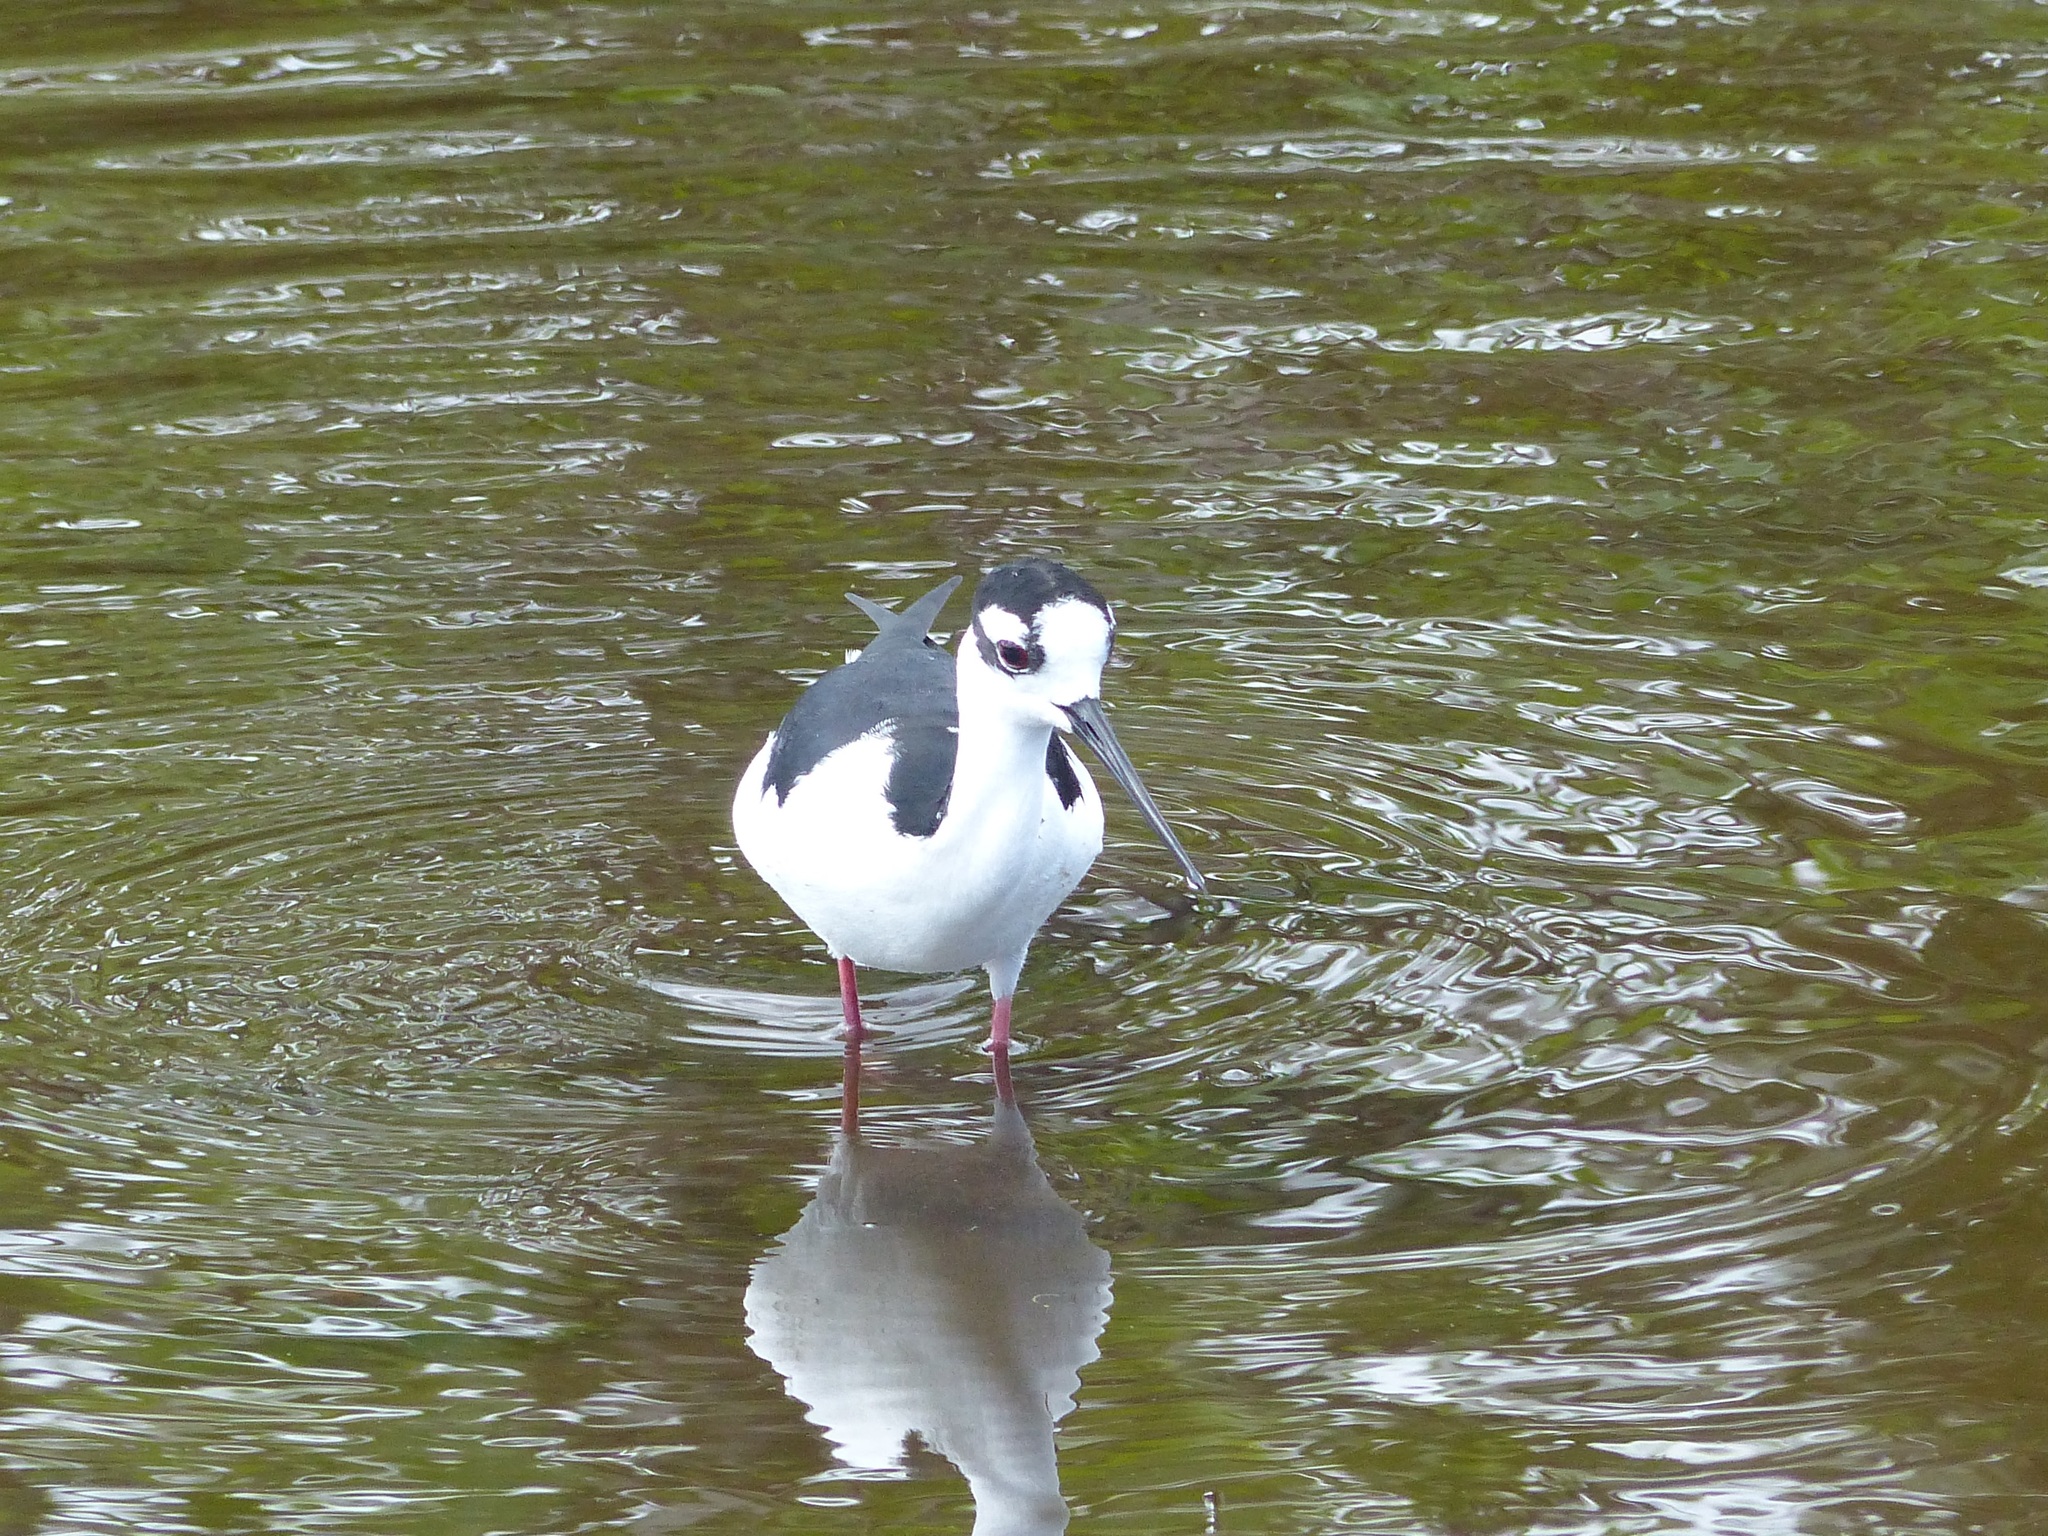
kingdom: Animalia
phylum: Chordata
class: Aves
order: Charadriiformes
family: Recurvirostridae
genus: Himantopus
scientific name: Himantopus mexicanus
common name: Black-necked stilt
